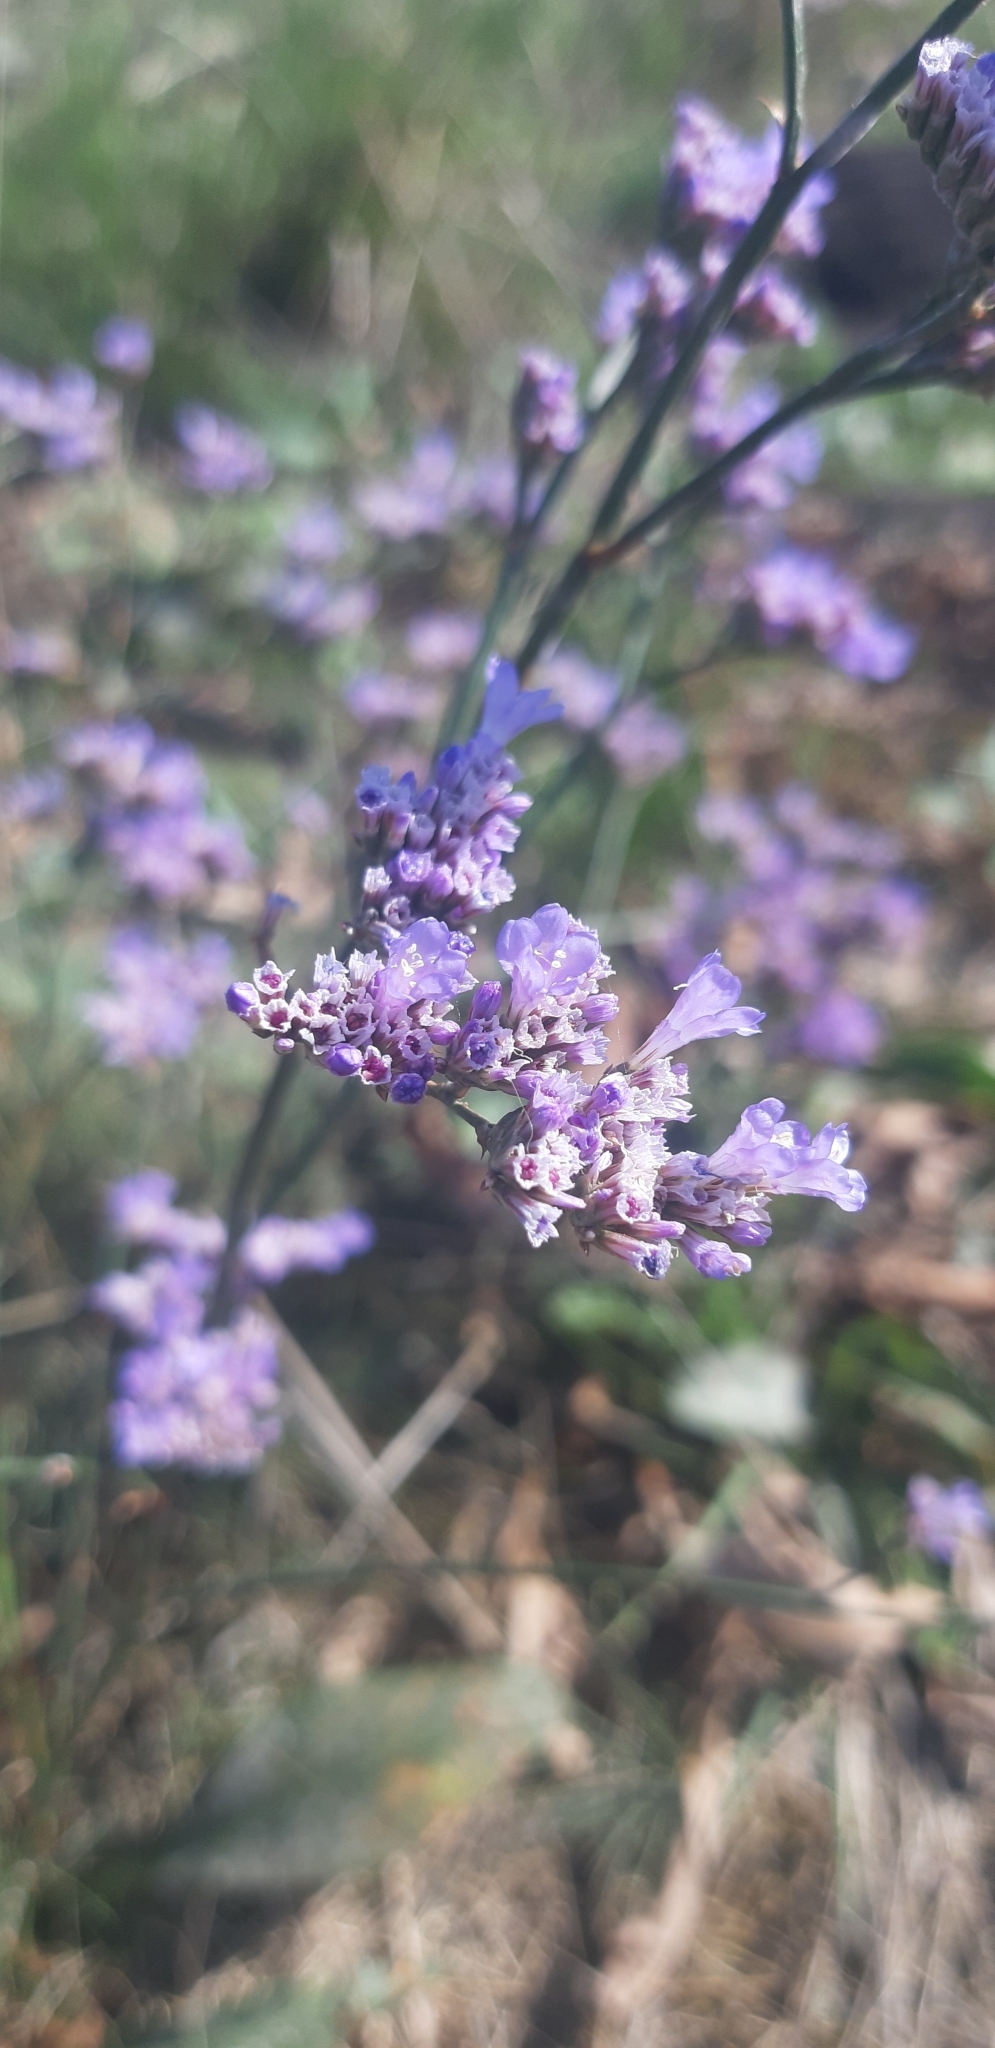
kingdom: Plantae
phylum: Tracheophyta
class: Magnoliopsida
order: Caryophyllales
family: Plumbaginaceae
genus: Limonium
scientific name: Limonium gmelini
